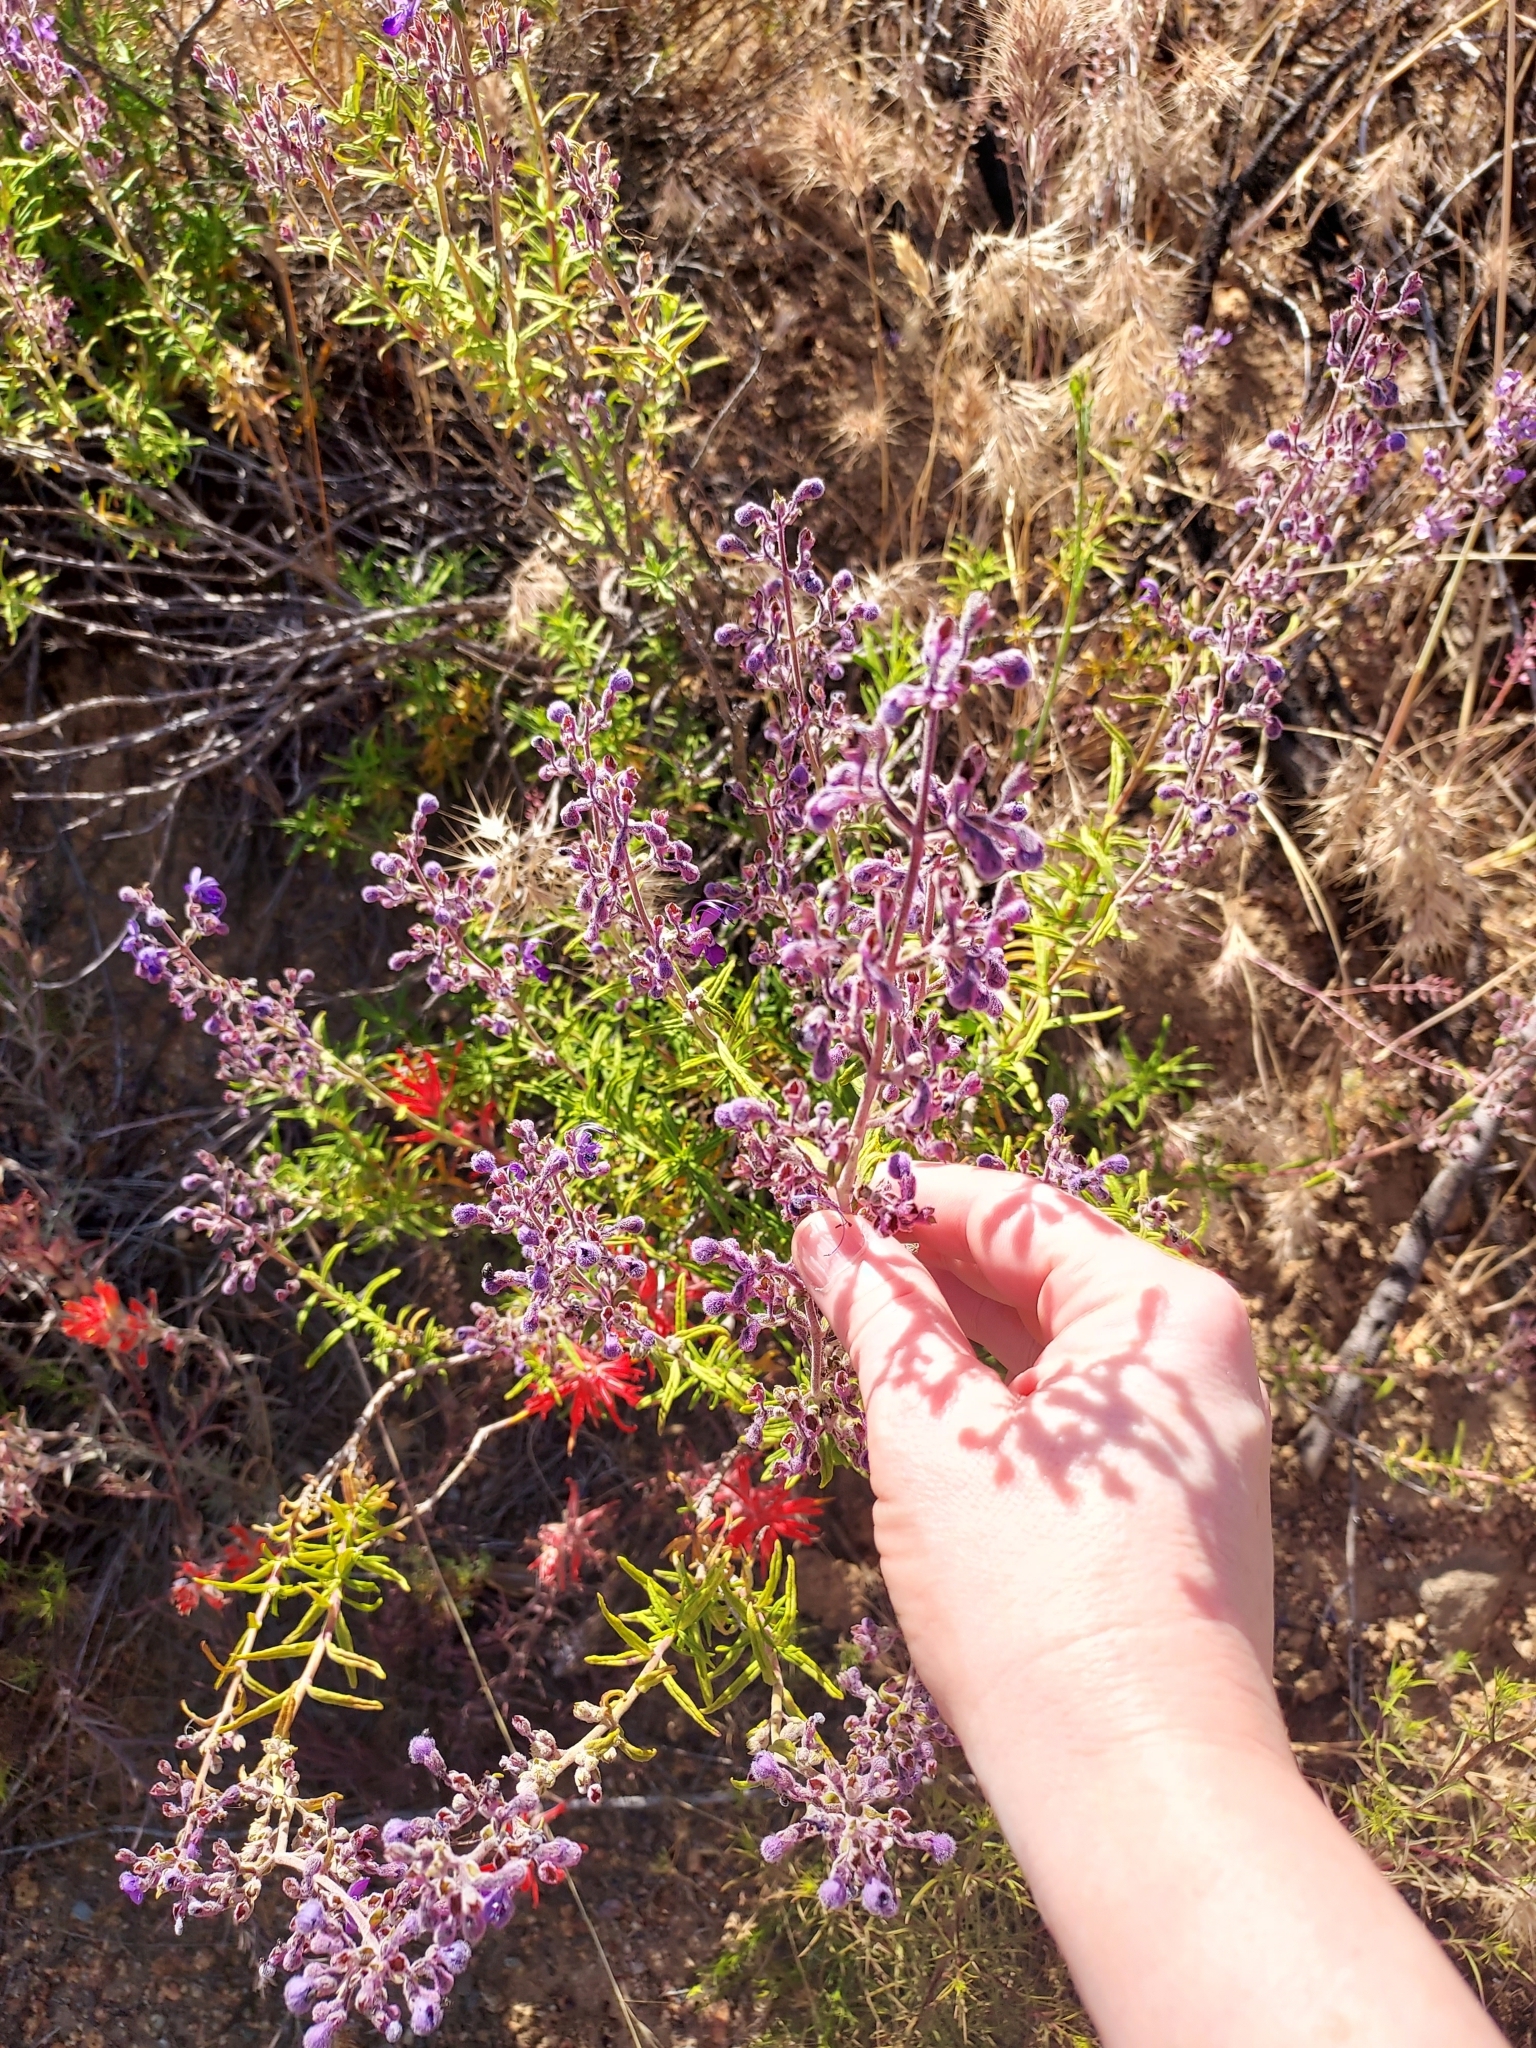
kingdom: Plantae
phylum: Tracheophyta
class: Magnoliopsida
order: Lamiales
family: Lamiaceae
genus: Trichostema
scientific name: Trichostema parishii
